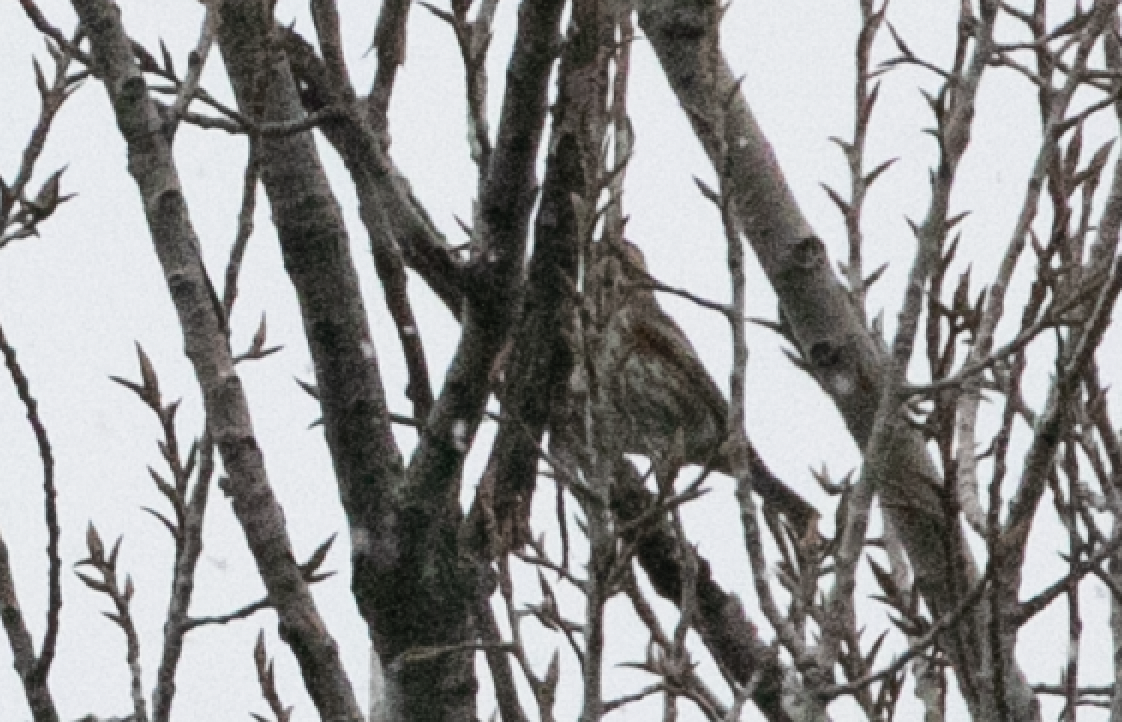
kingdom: Animalia
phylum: Chordata
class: Aves
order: Passeriformes
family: Turdidae
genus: Turdus
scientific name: Turdus iliacus
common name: Redwing
